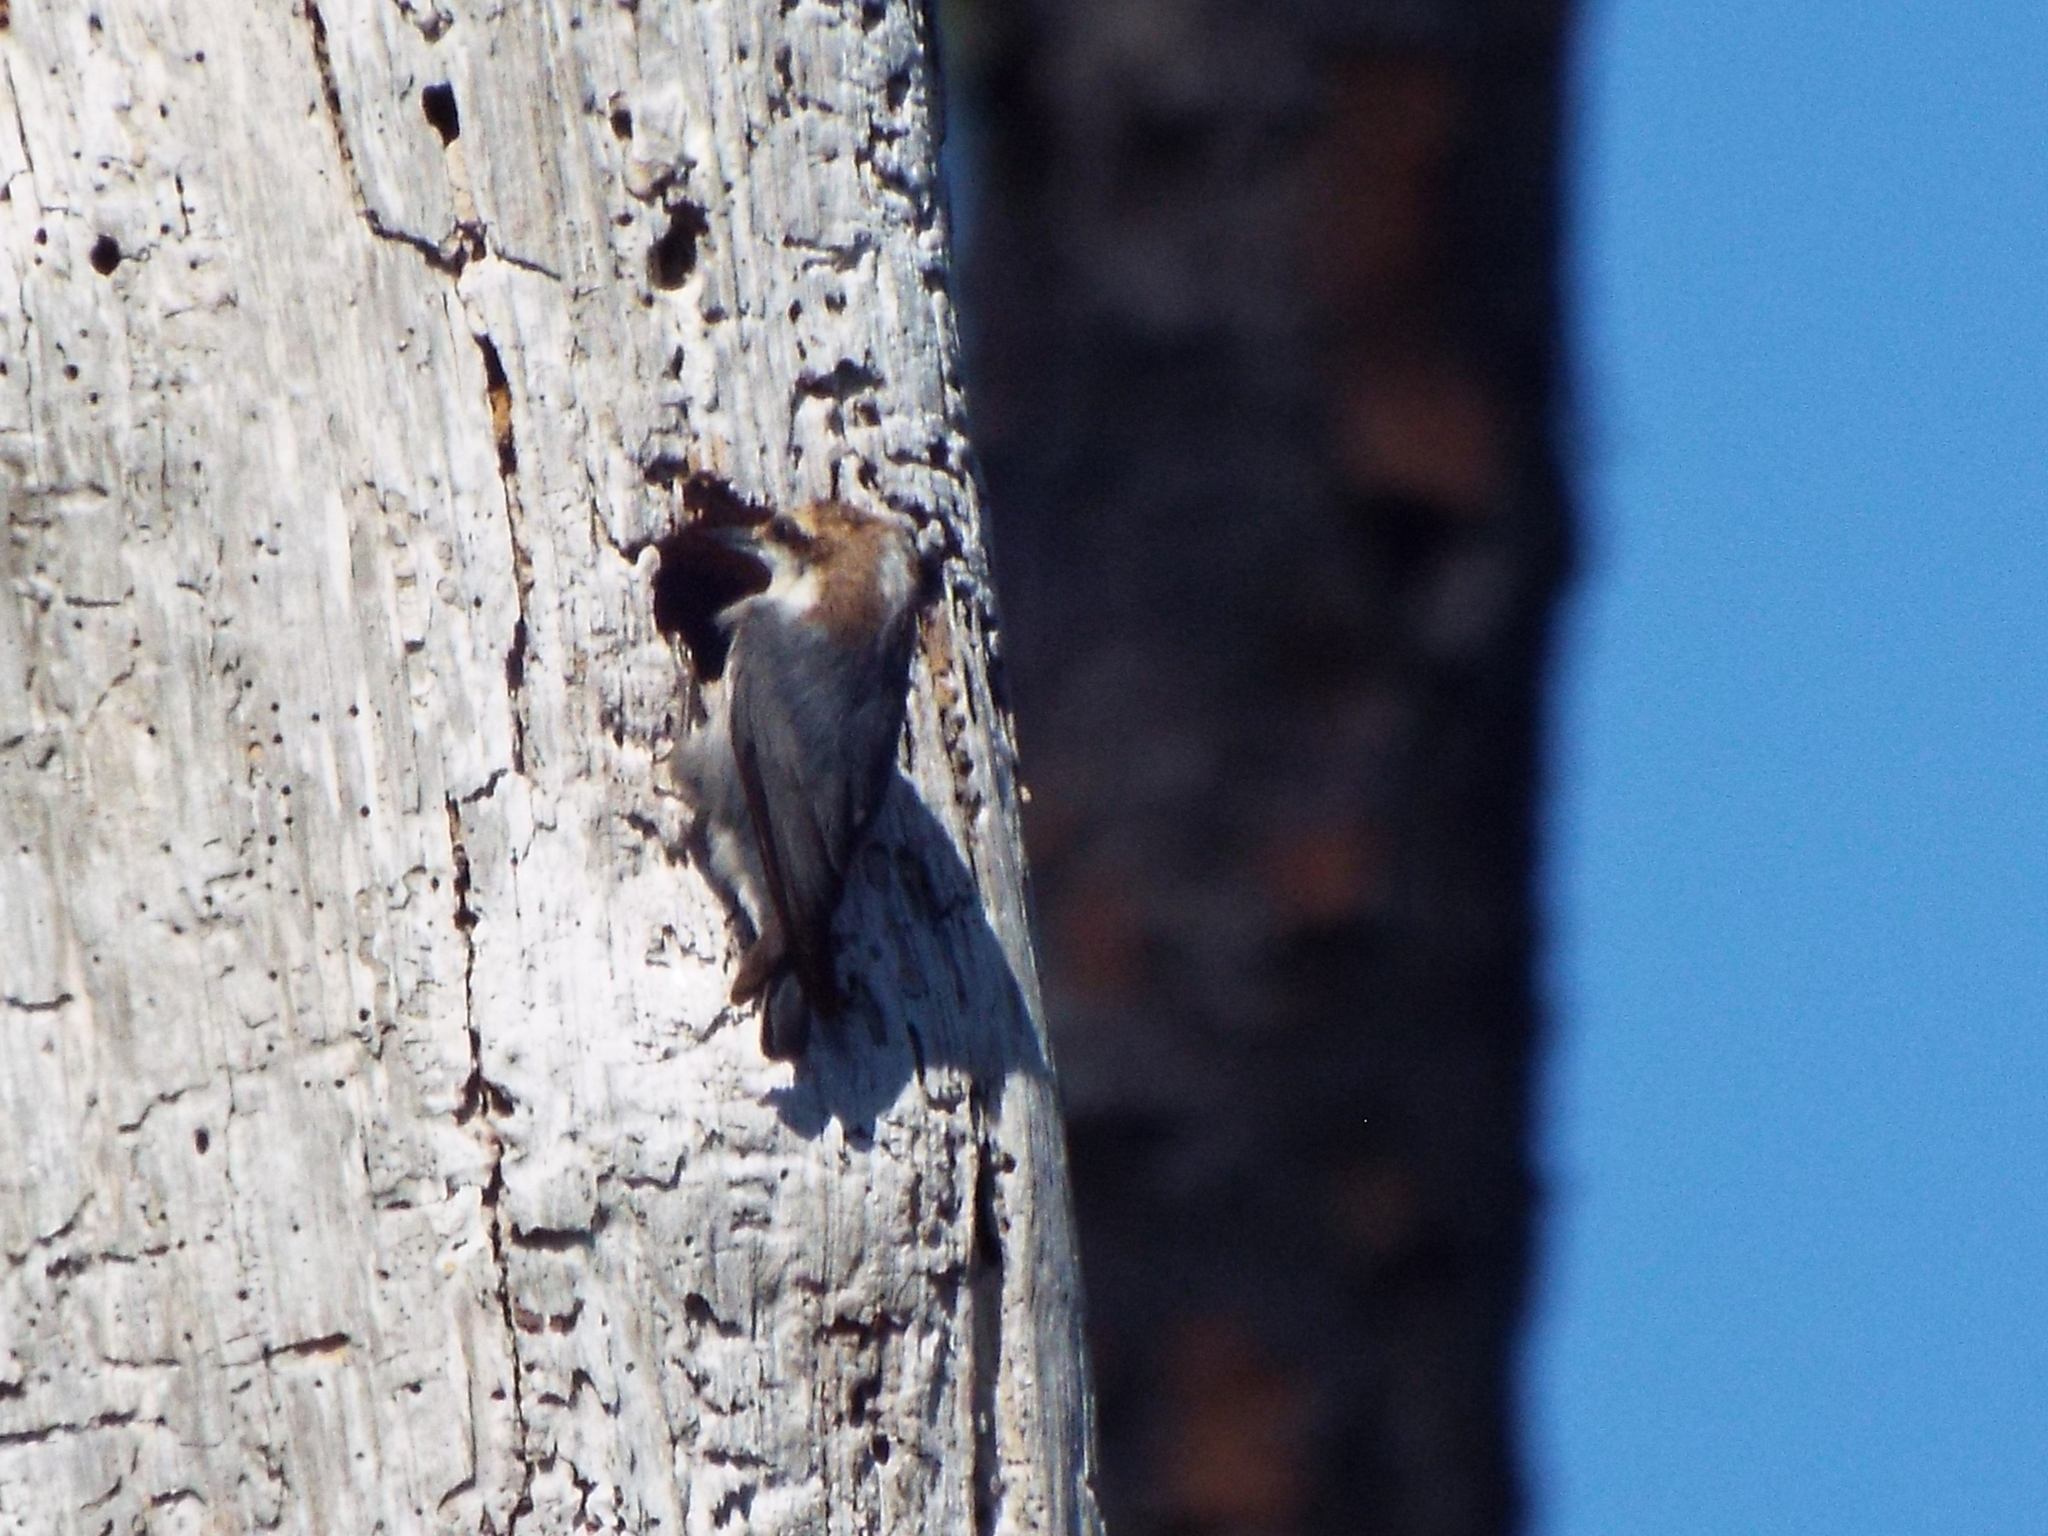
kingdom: Animalia
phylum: Chordata
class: Aves
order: Passeriformes
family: Sittidae
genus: Sitta
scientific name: Sitta pusilla
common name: Brown-headed nuthatch
